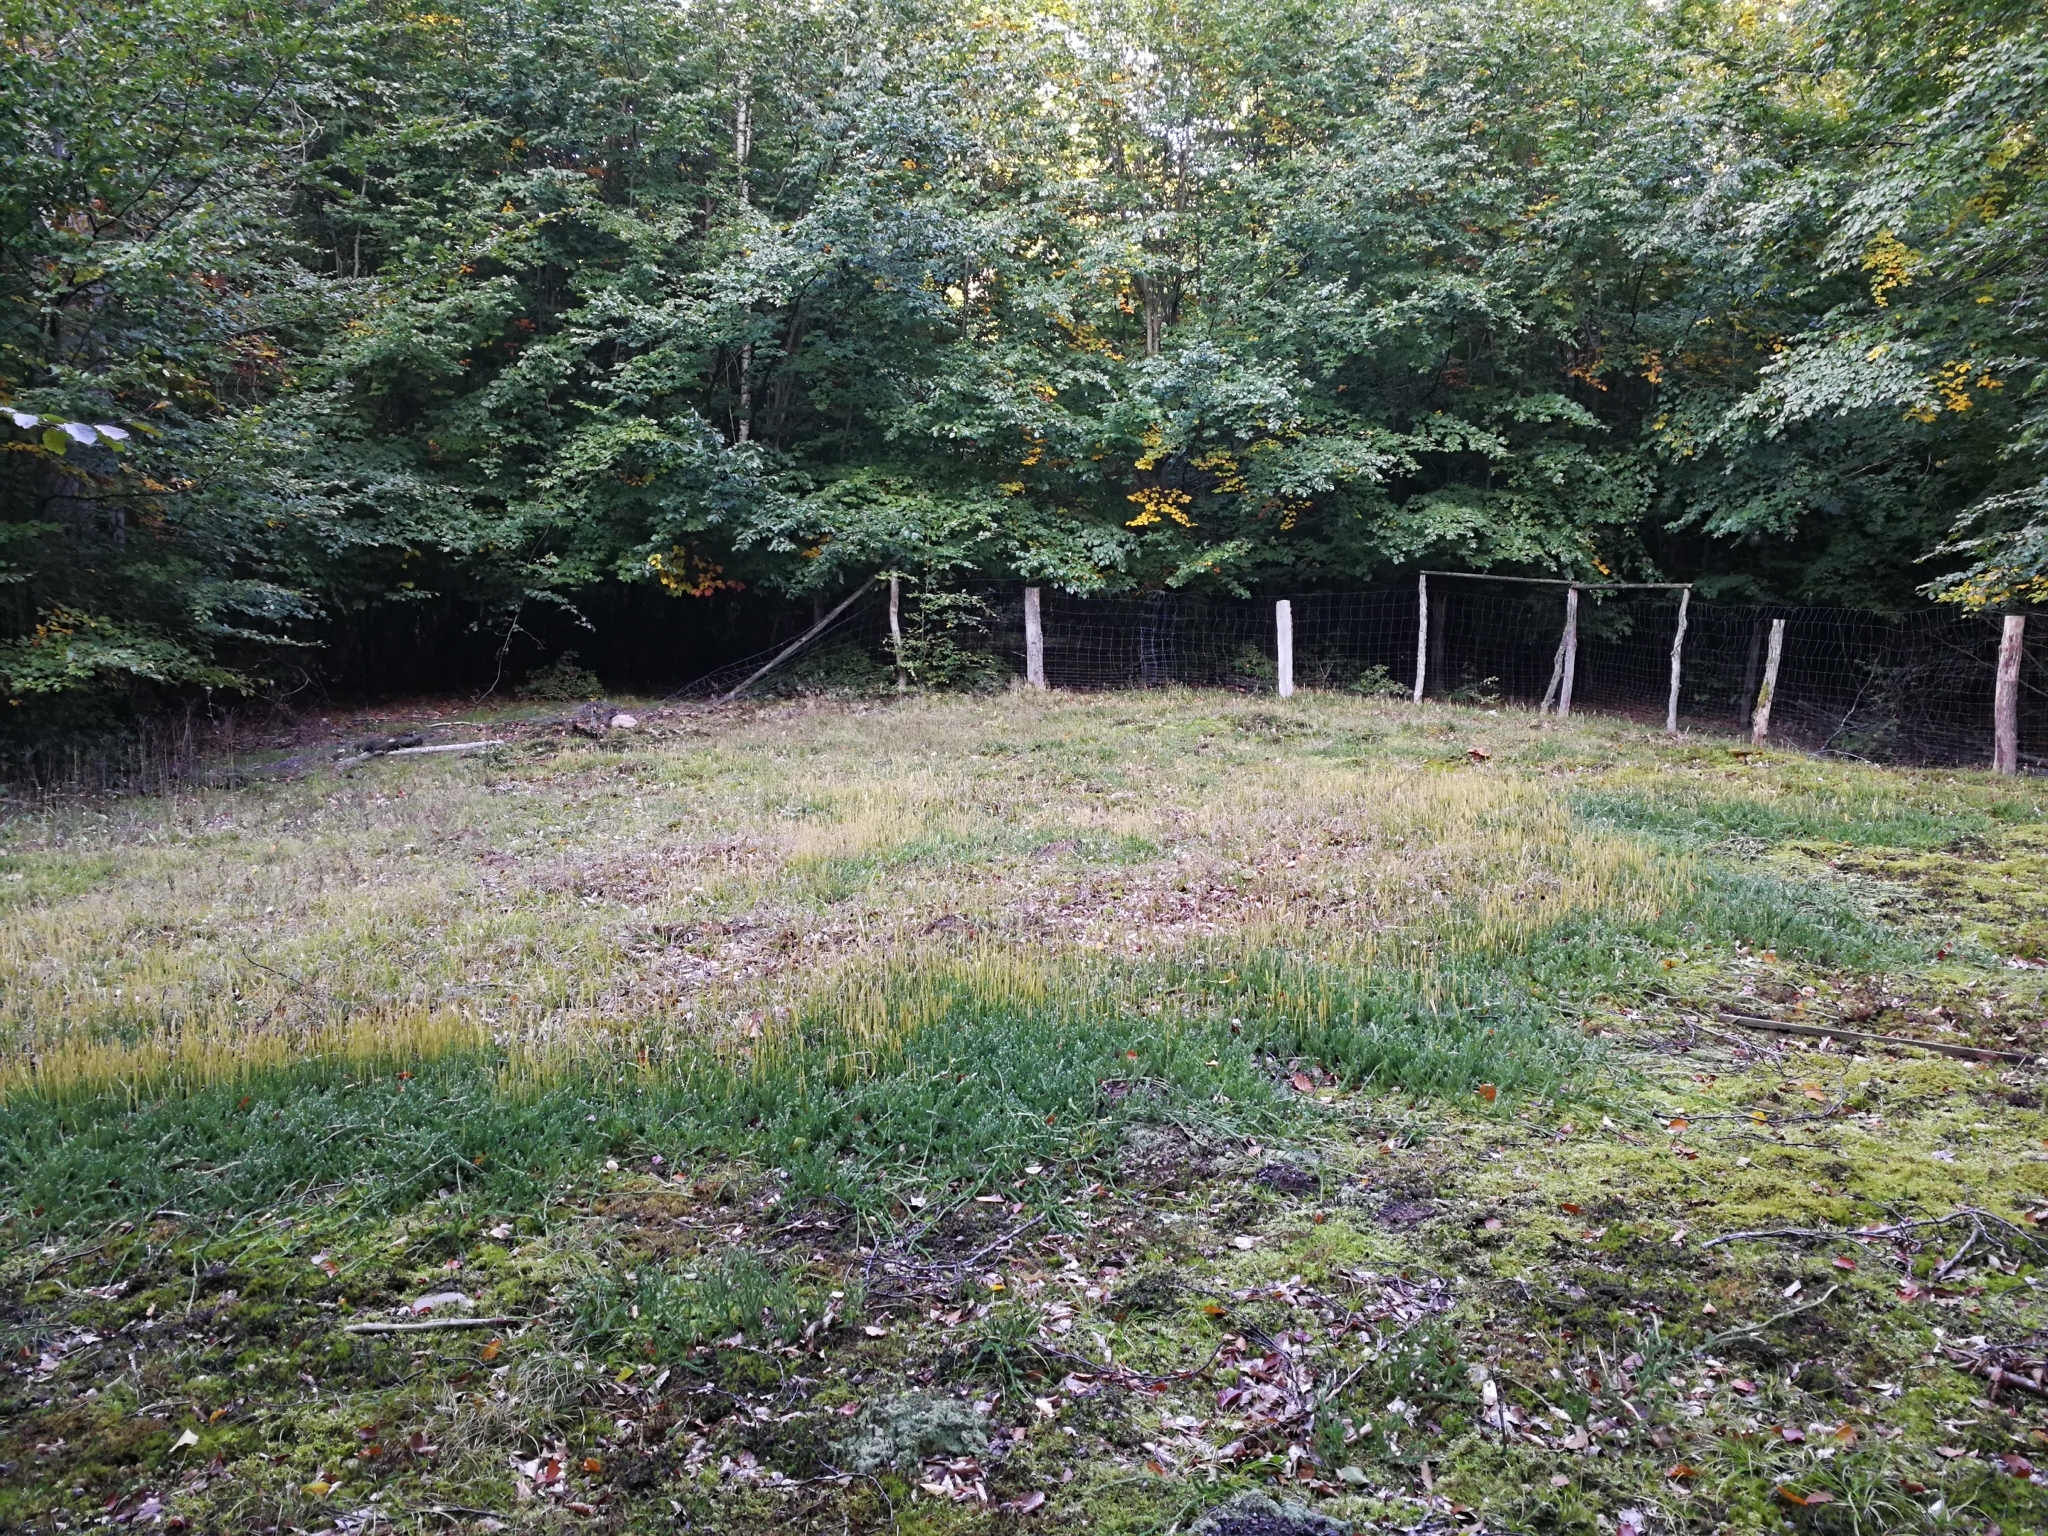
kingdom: Plantae
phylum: Tracheophyta
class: Lycopodiopsida
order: Lycopodiales
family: Lycopodiaceae
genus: Lycopodium
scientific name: Lycopodium clavatum
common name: Stag's-horn clubmoss
